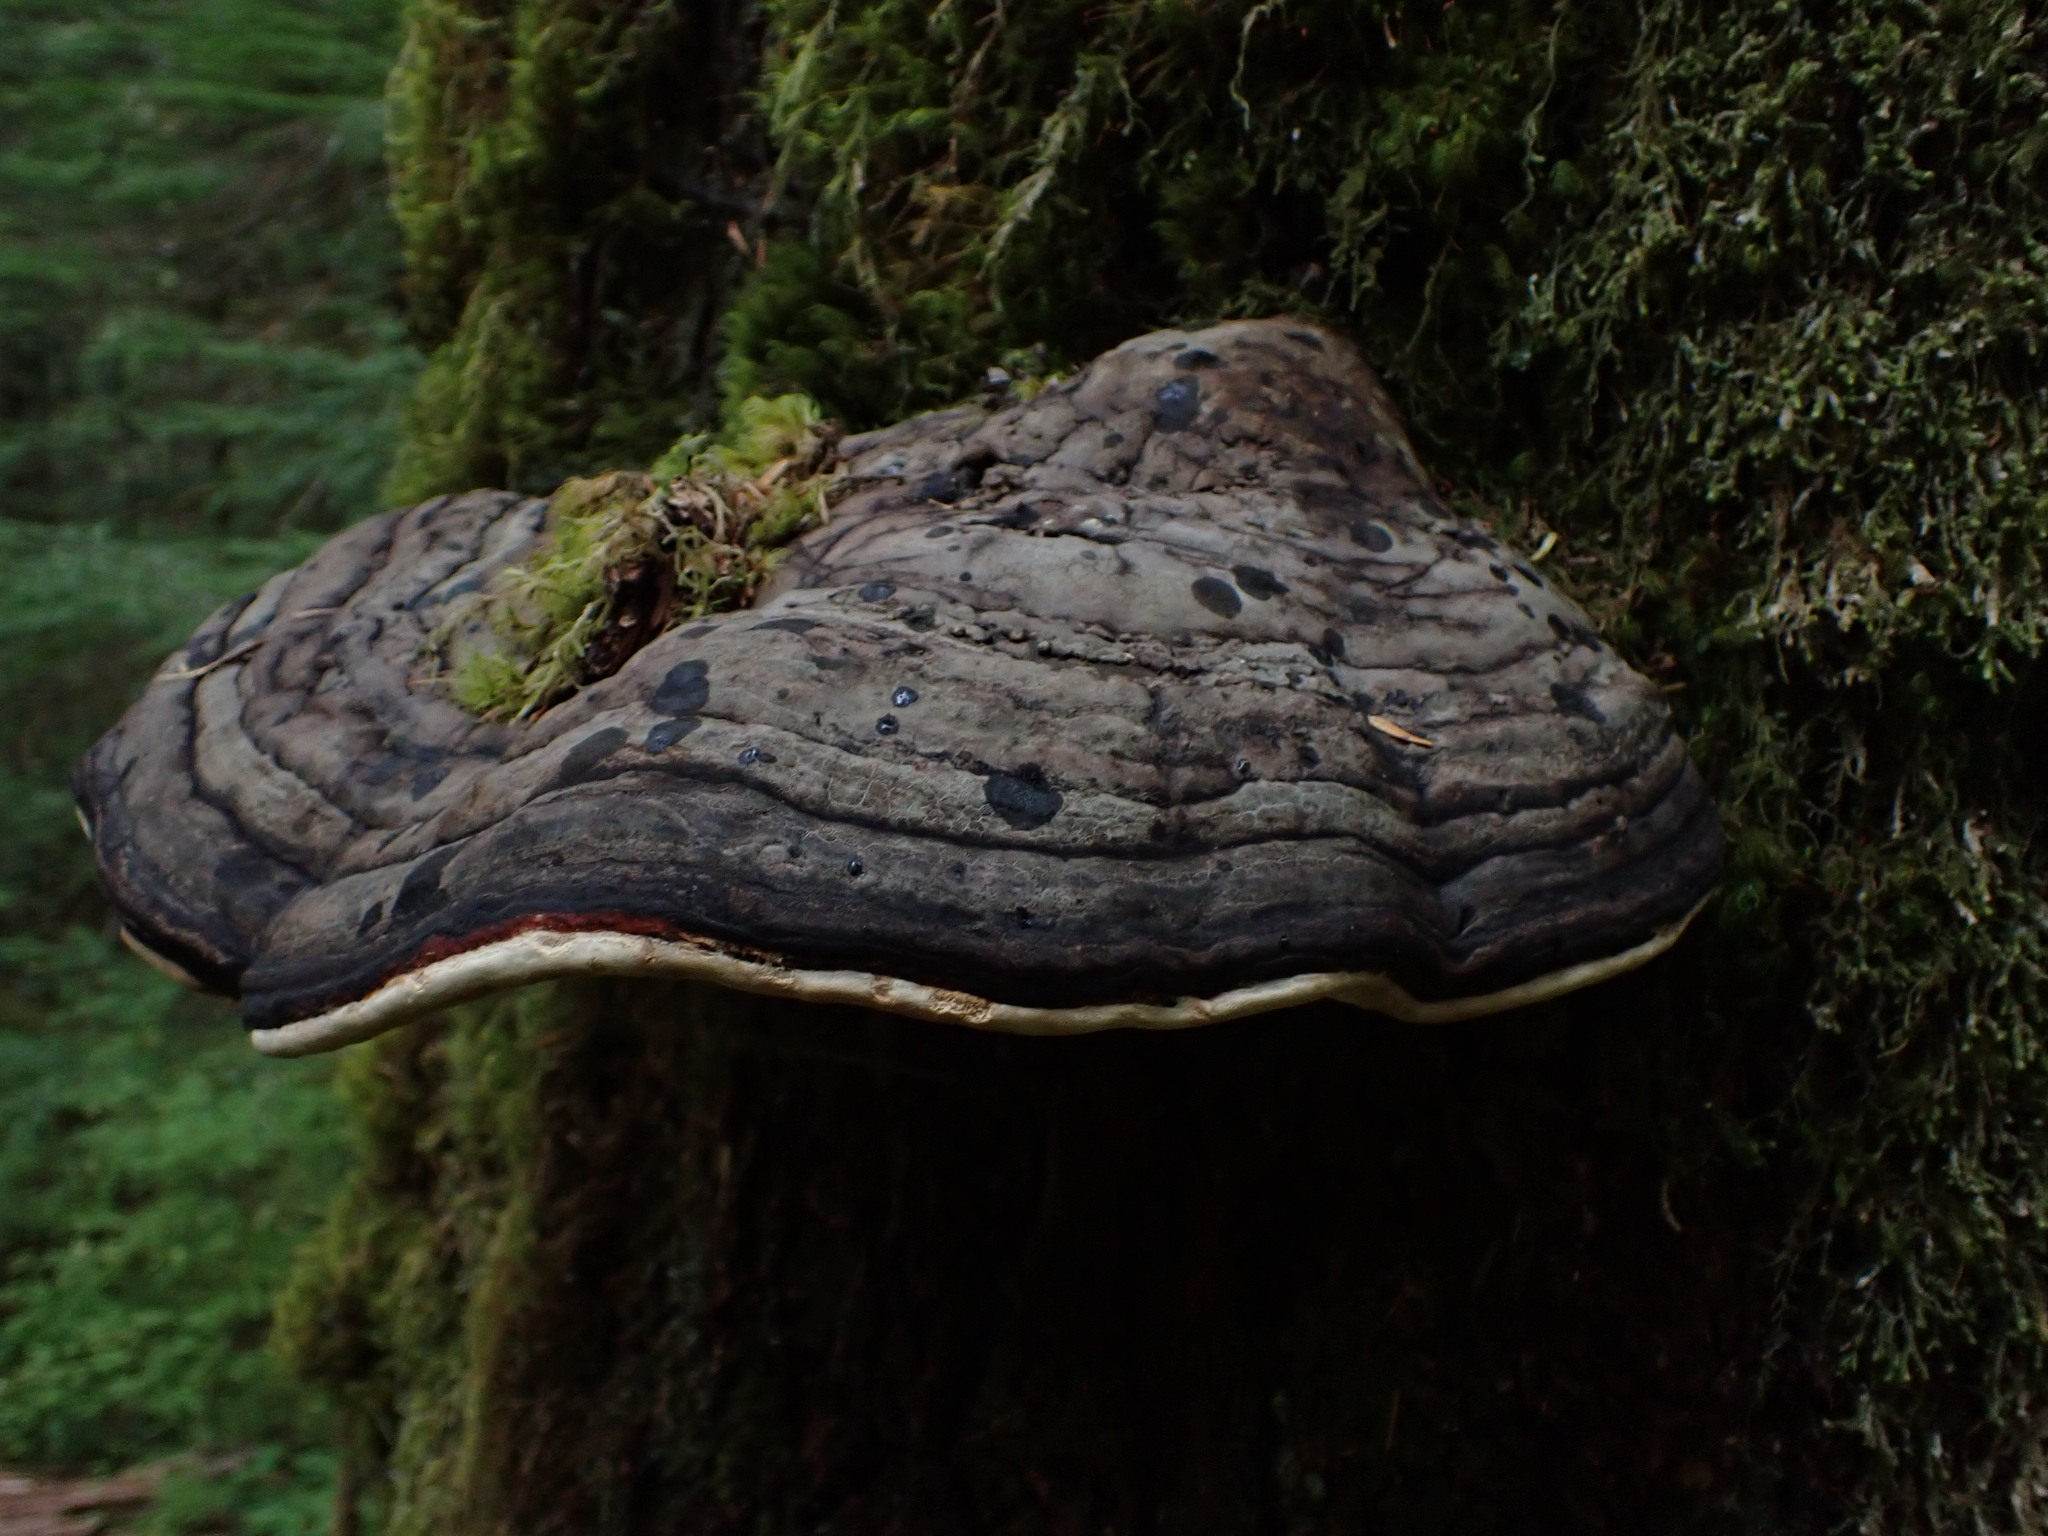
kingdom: Fungi
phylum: Basidiomycota
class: Agaricomycetes
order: Polyporales
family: Fomitopsidaceae
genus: Fomitopsis
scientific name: Fomitopsis mounceae
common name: Northern red belt
